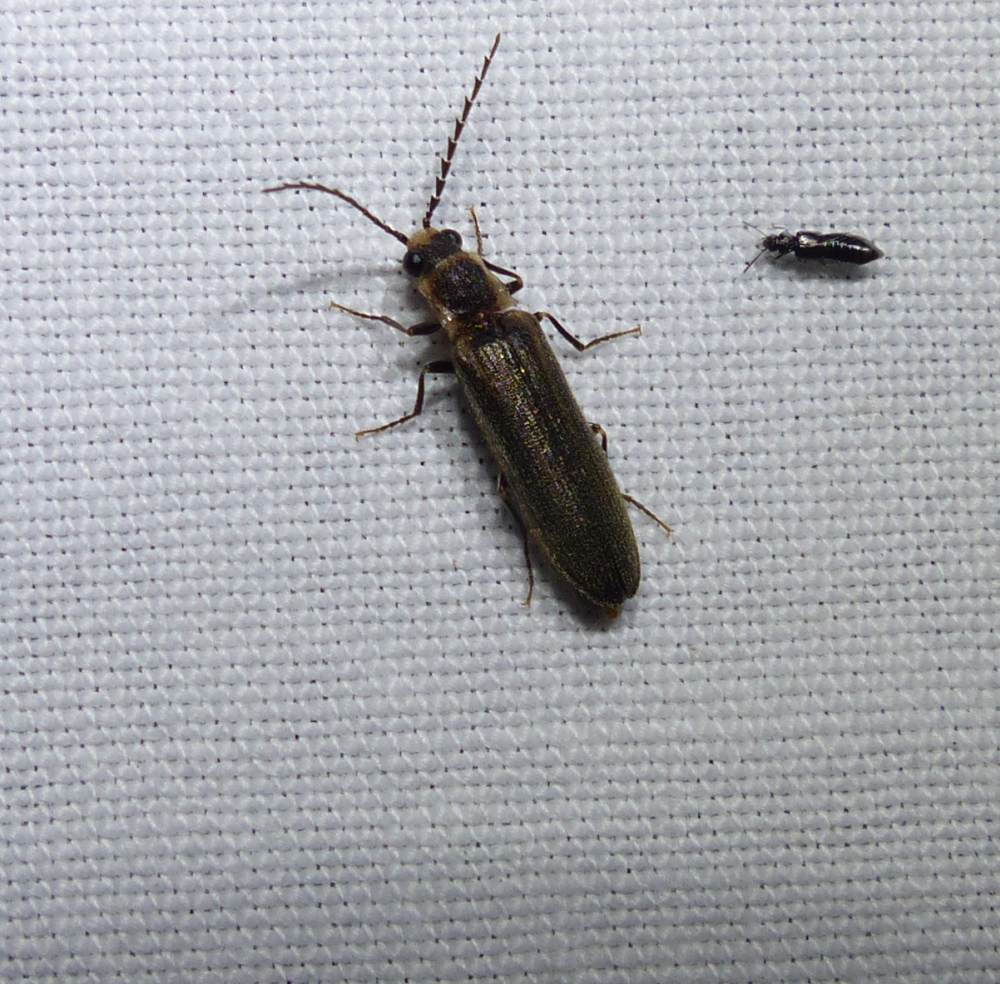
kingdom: Animalia
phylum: Arthropoda
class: Insecta
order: Coleoptera
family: Elateridae
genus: Denticollis
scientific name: Denticollis denticornis
